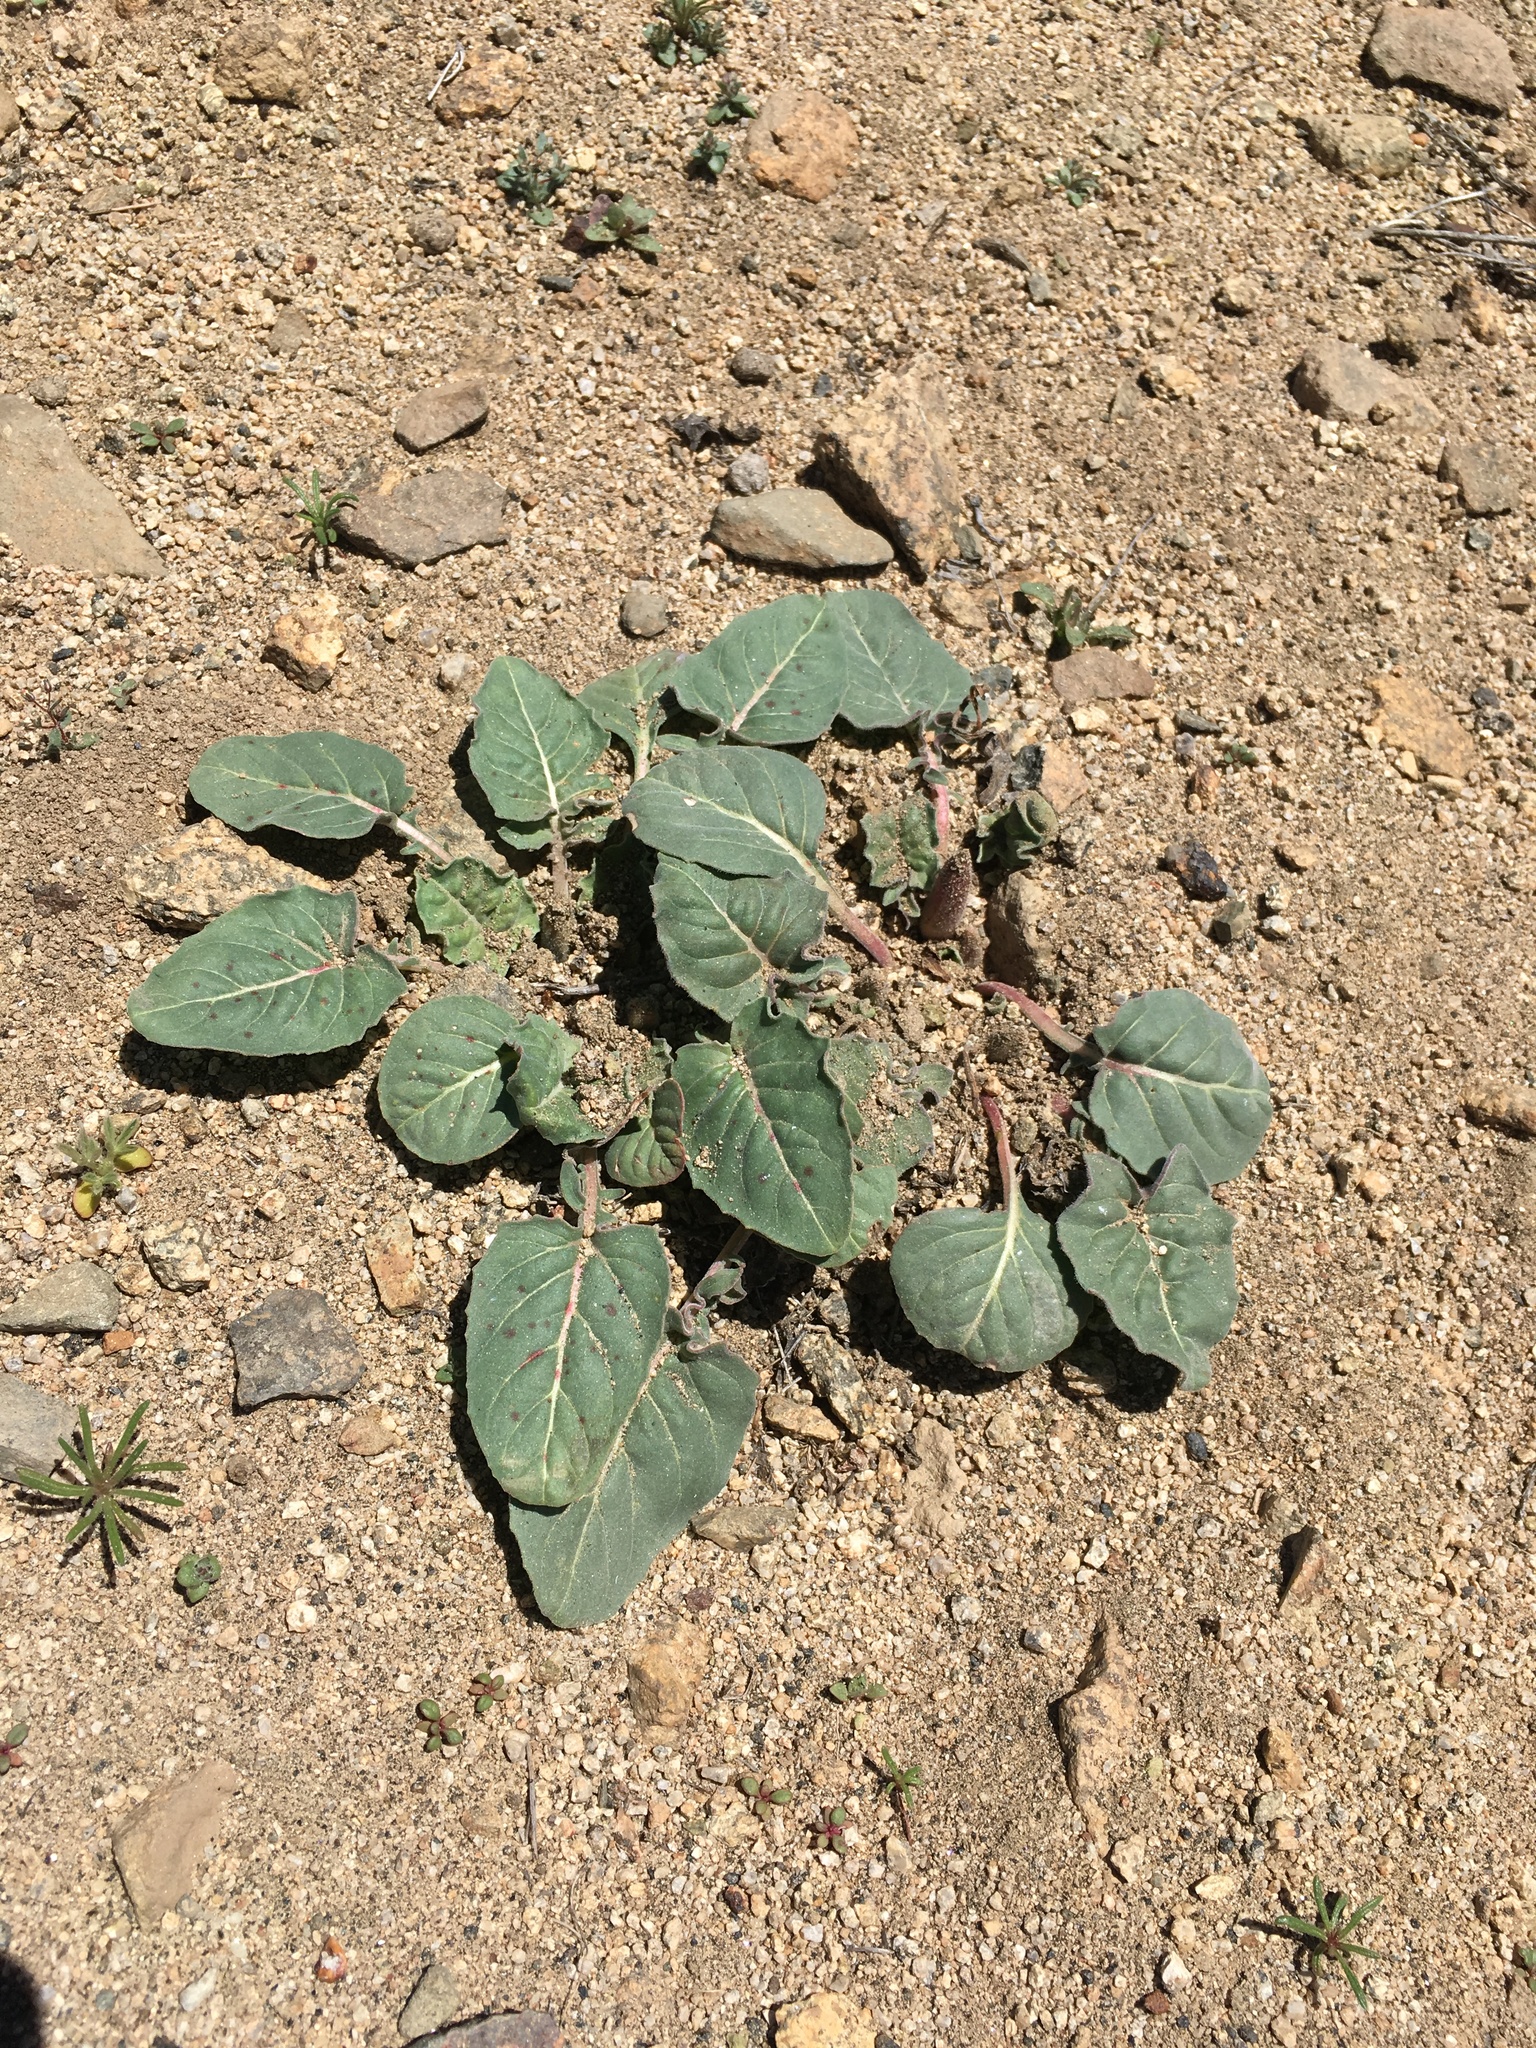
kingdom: Plantae
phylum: Tracheophyta
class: Magnoliopsida
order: Myrtales
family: Onagraceae
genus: Oenothera
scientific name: Oenothera xylocarpa
